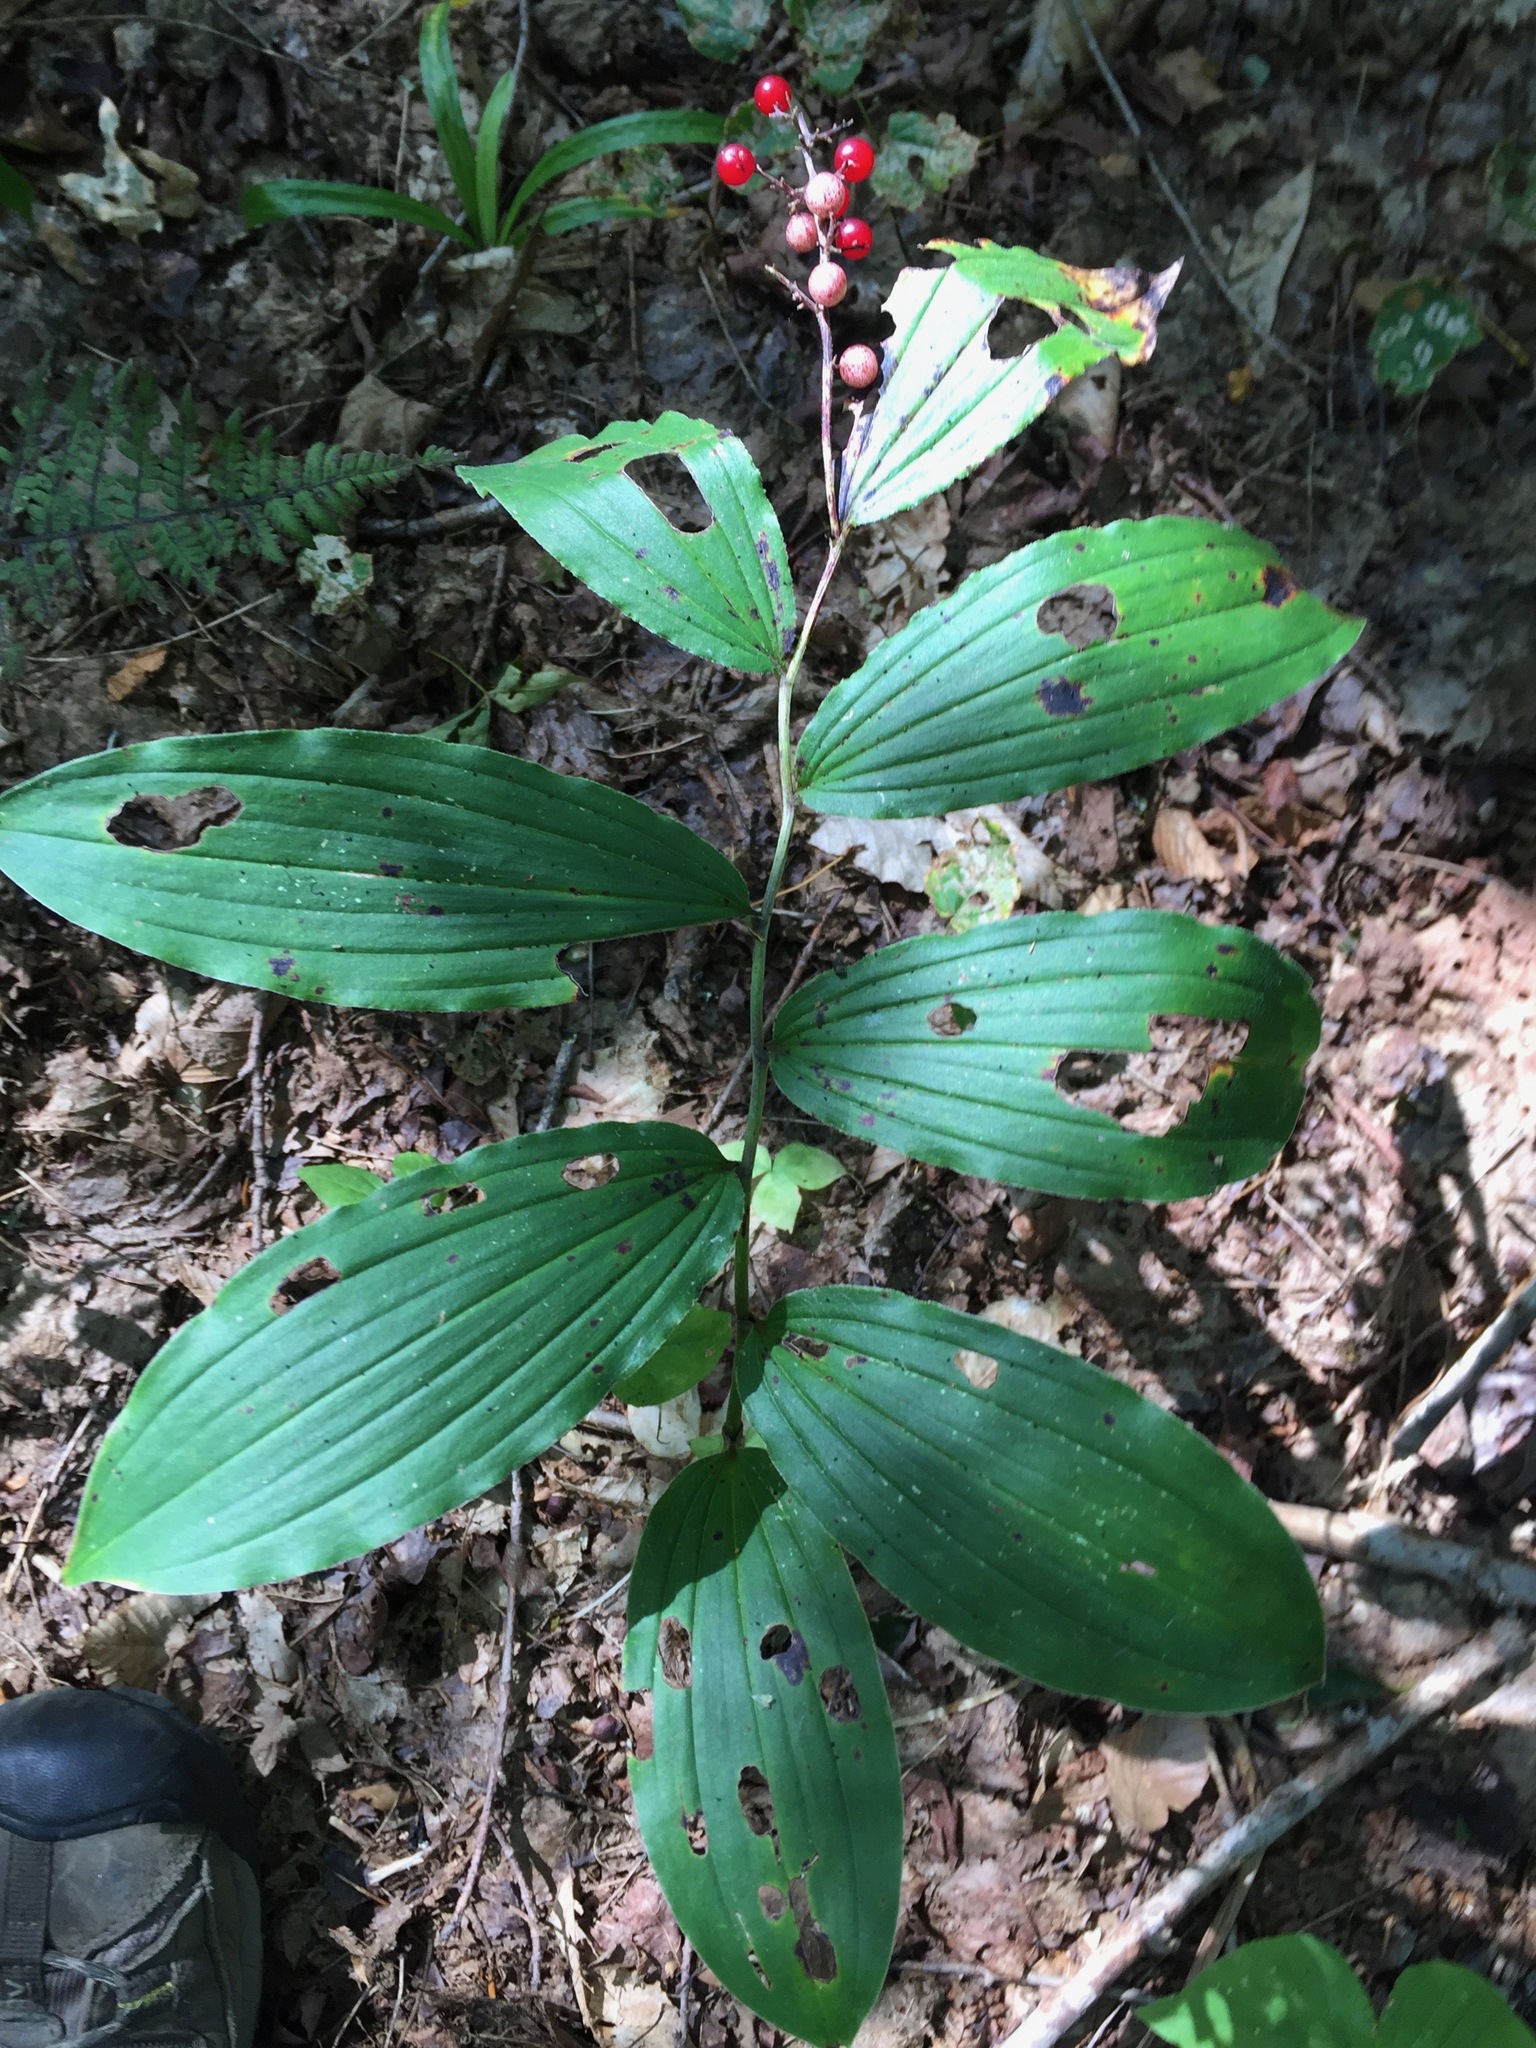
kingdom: Plantae
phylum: Tracheophyta
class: Liliopsida
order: Asparagales
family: Asparagaceae
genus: Maianthemum
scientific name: Maianthemum racemosum
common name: False spikenard
